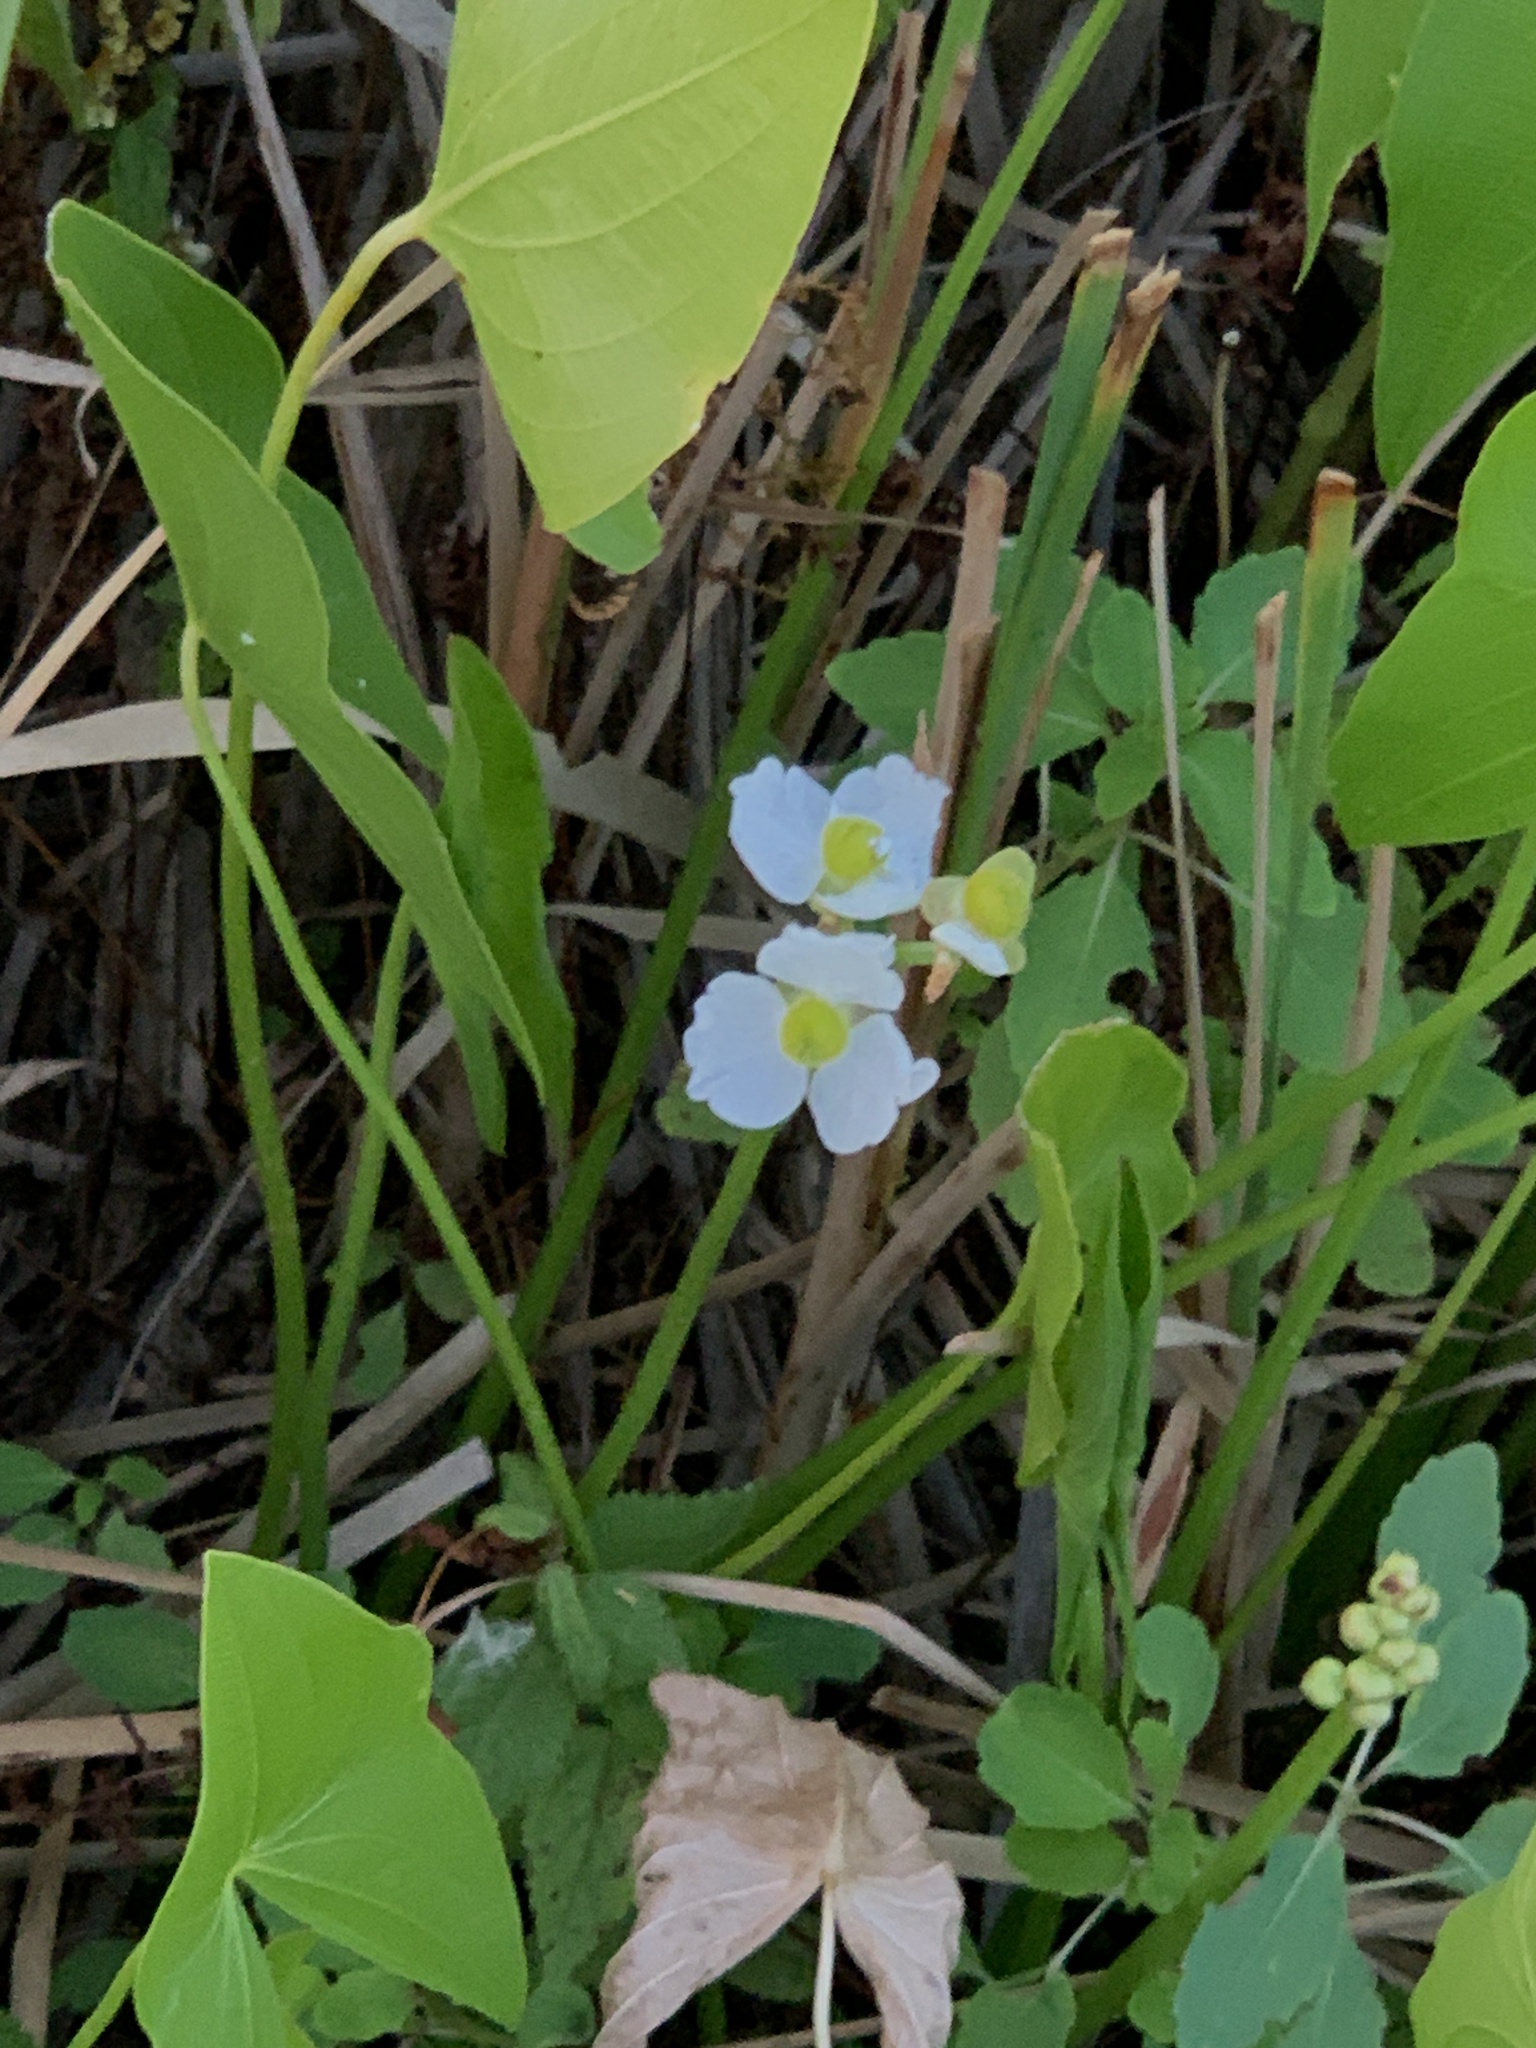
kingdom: Plantae
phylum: Tracheophyta
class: Liliopsida
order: Alismatales
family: Alismataceae
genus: Sagittaria
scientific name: Sagittaria latifolia
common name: Duck-potato
